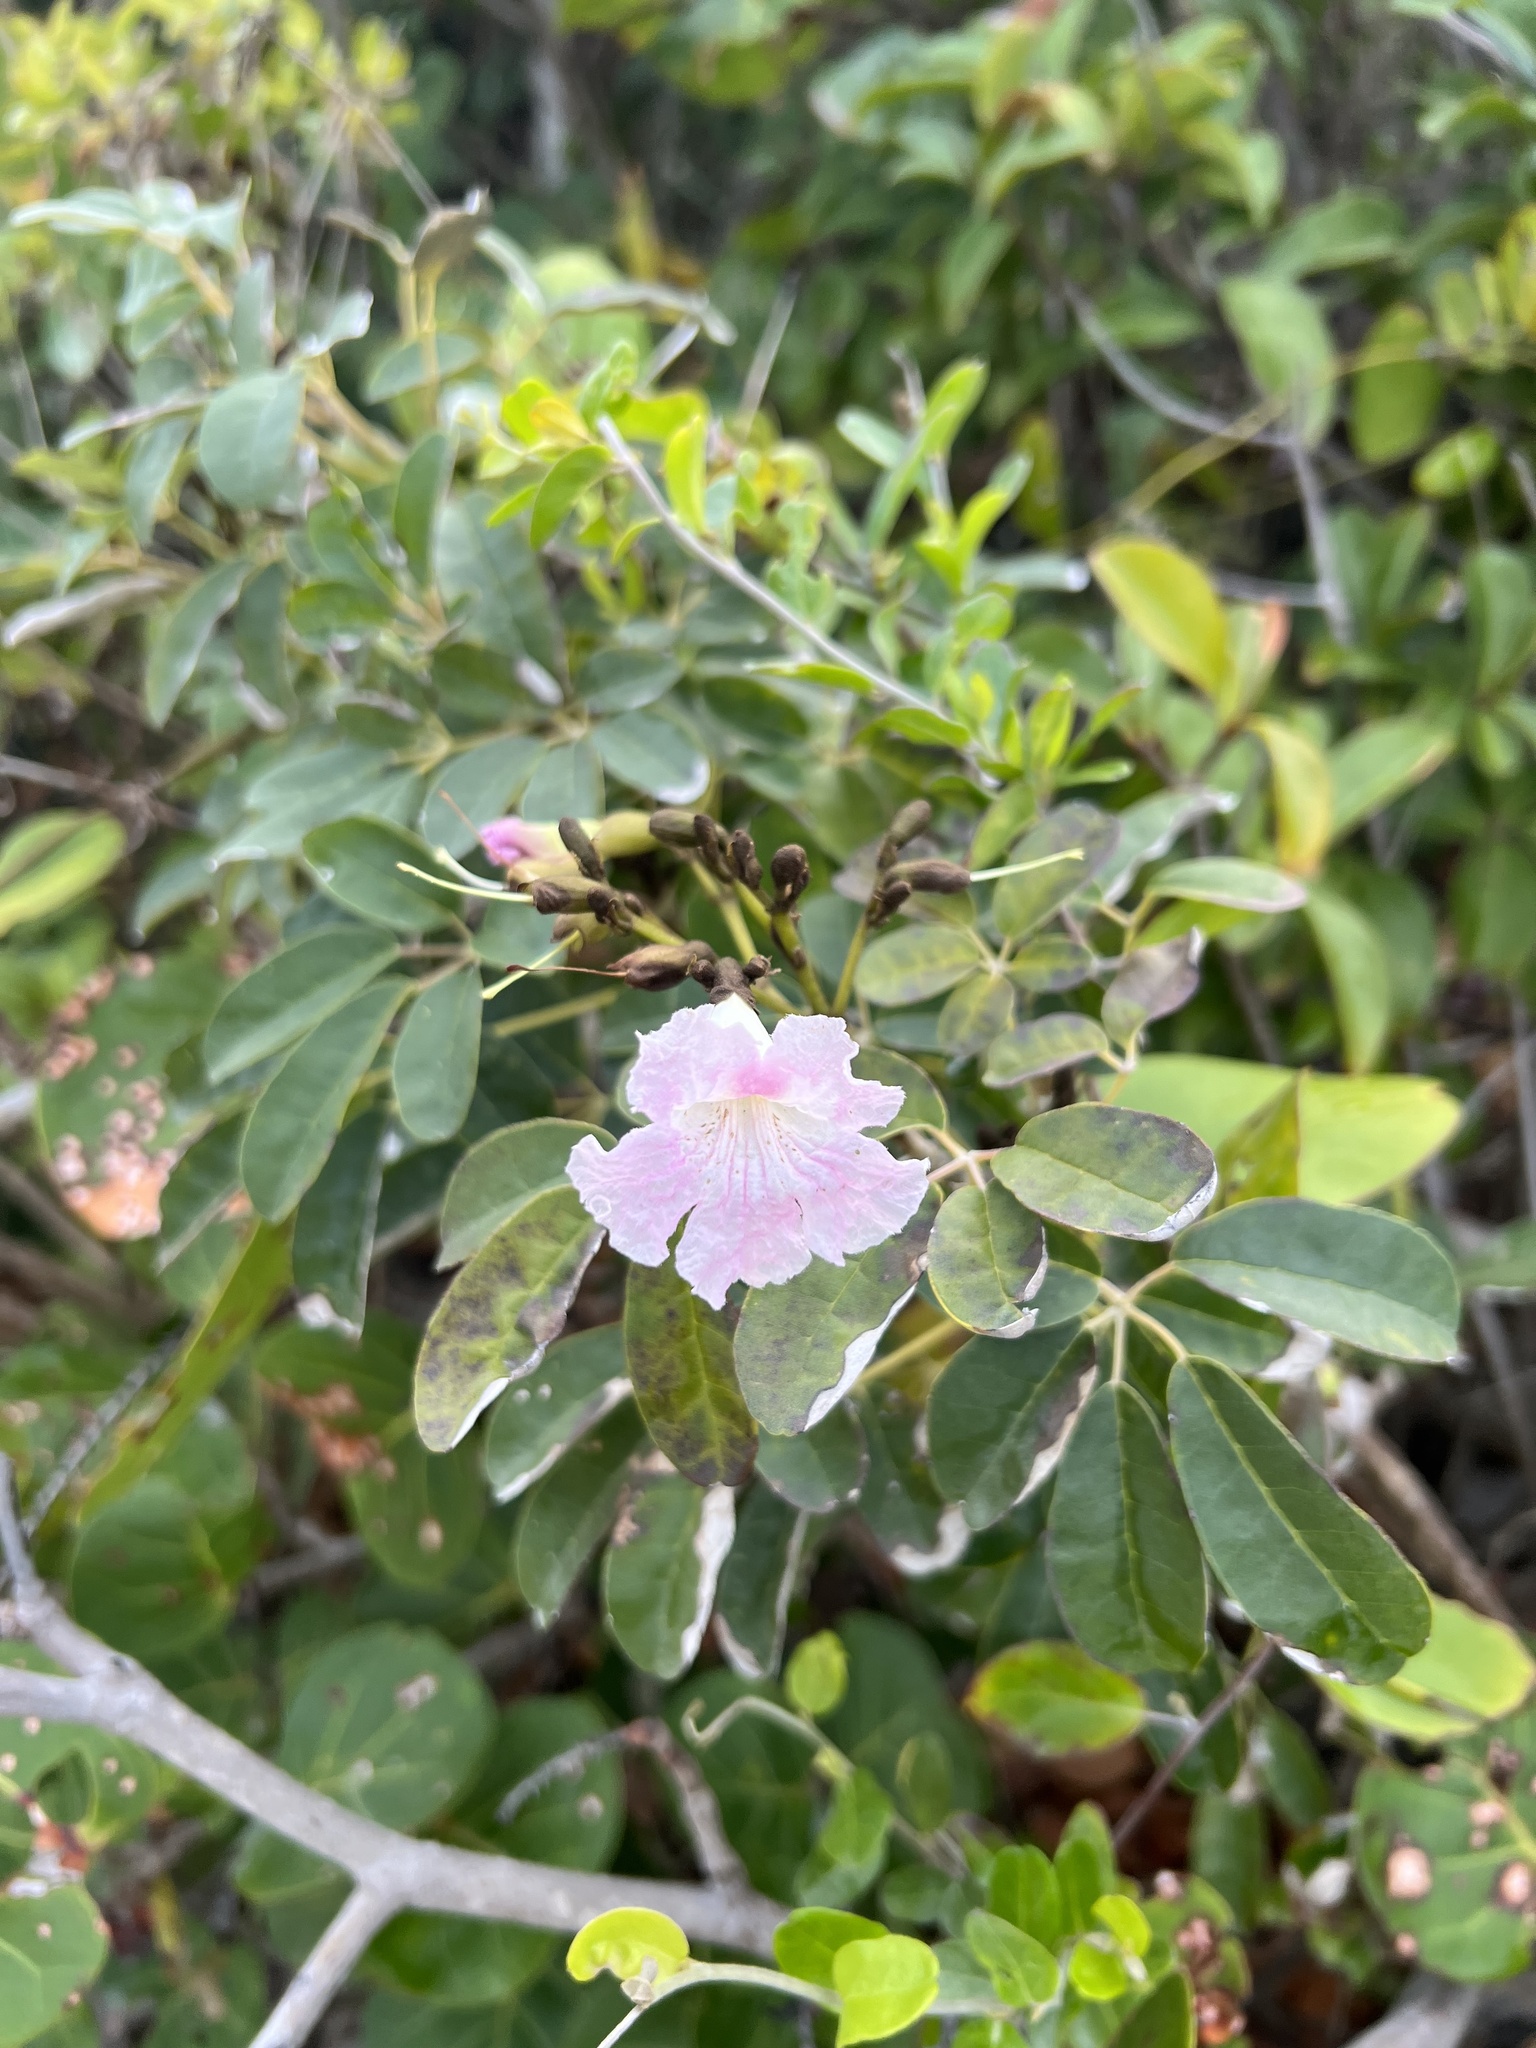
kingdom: Plantae
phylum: Tracheophyta
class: Magnoliopsida
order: Lamiales
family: Bignoniaceae
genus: Tabebuia
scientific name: Tabebuia heterophylla
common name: White cedar
